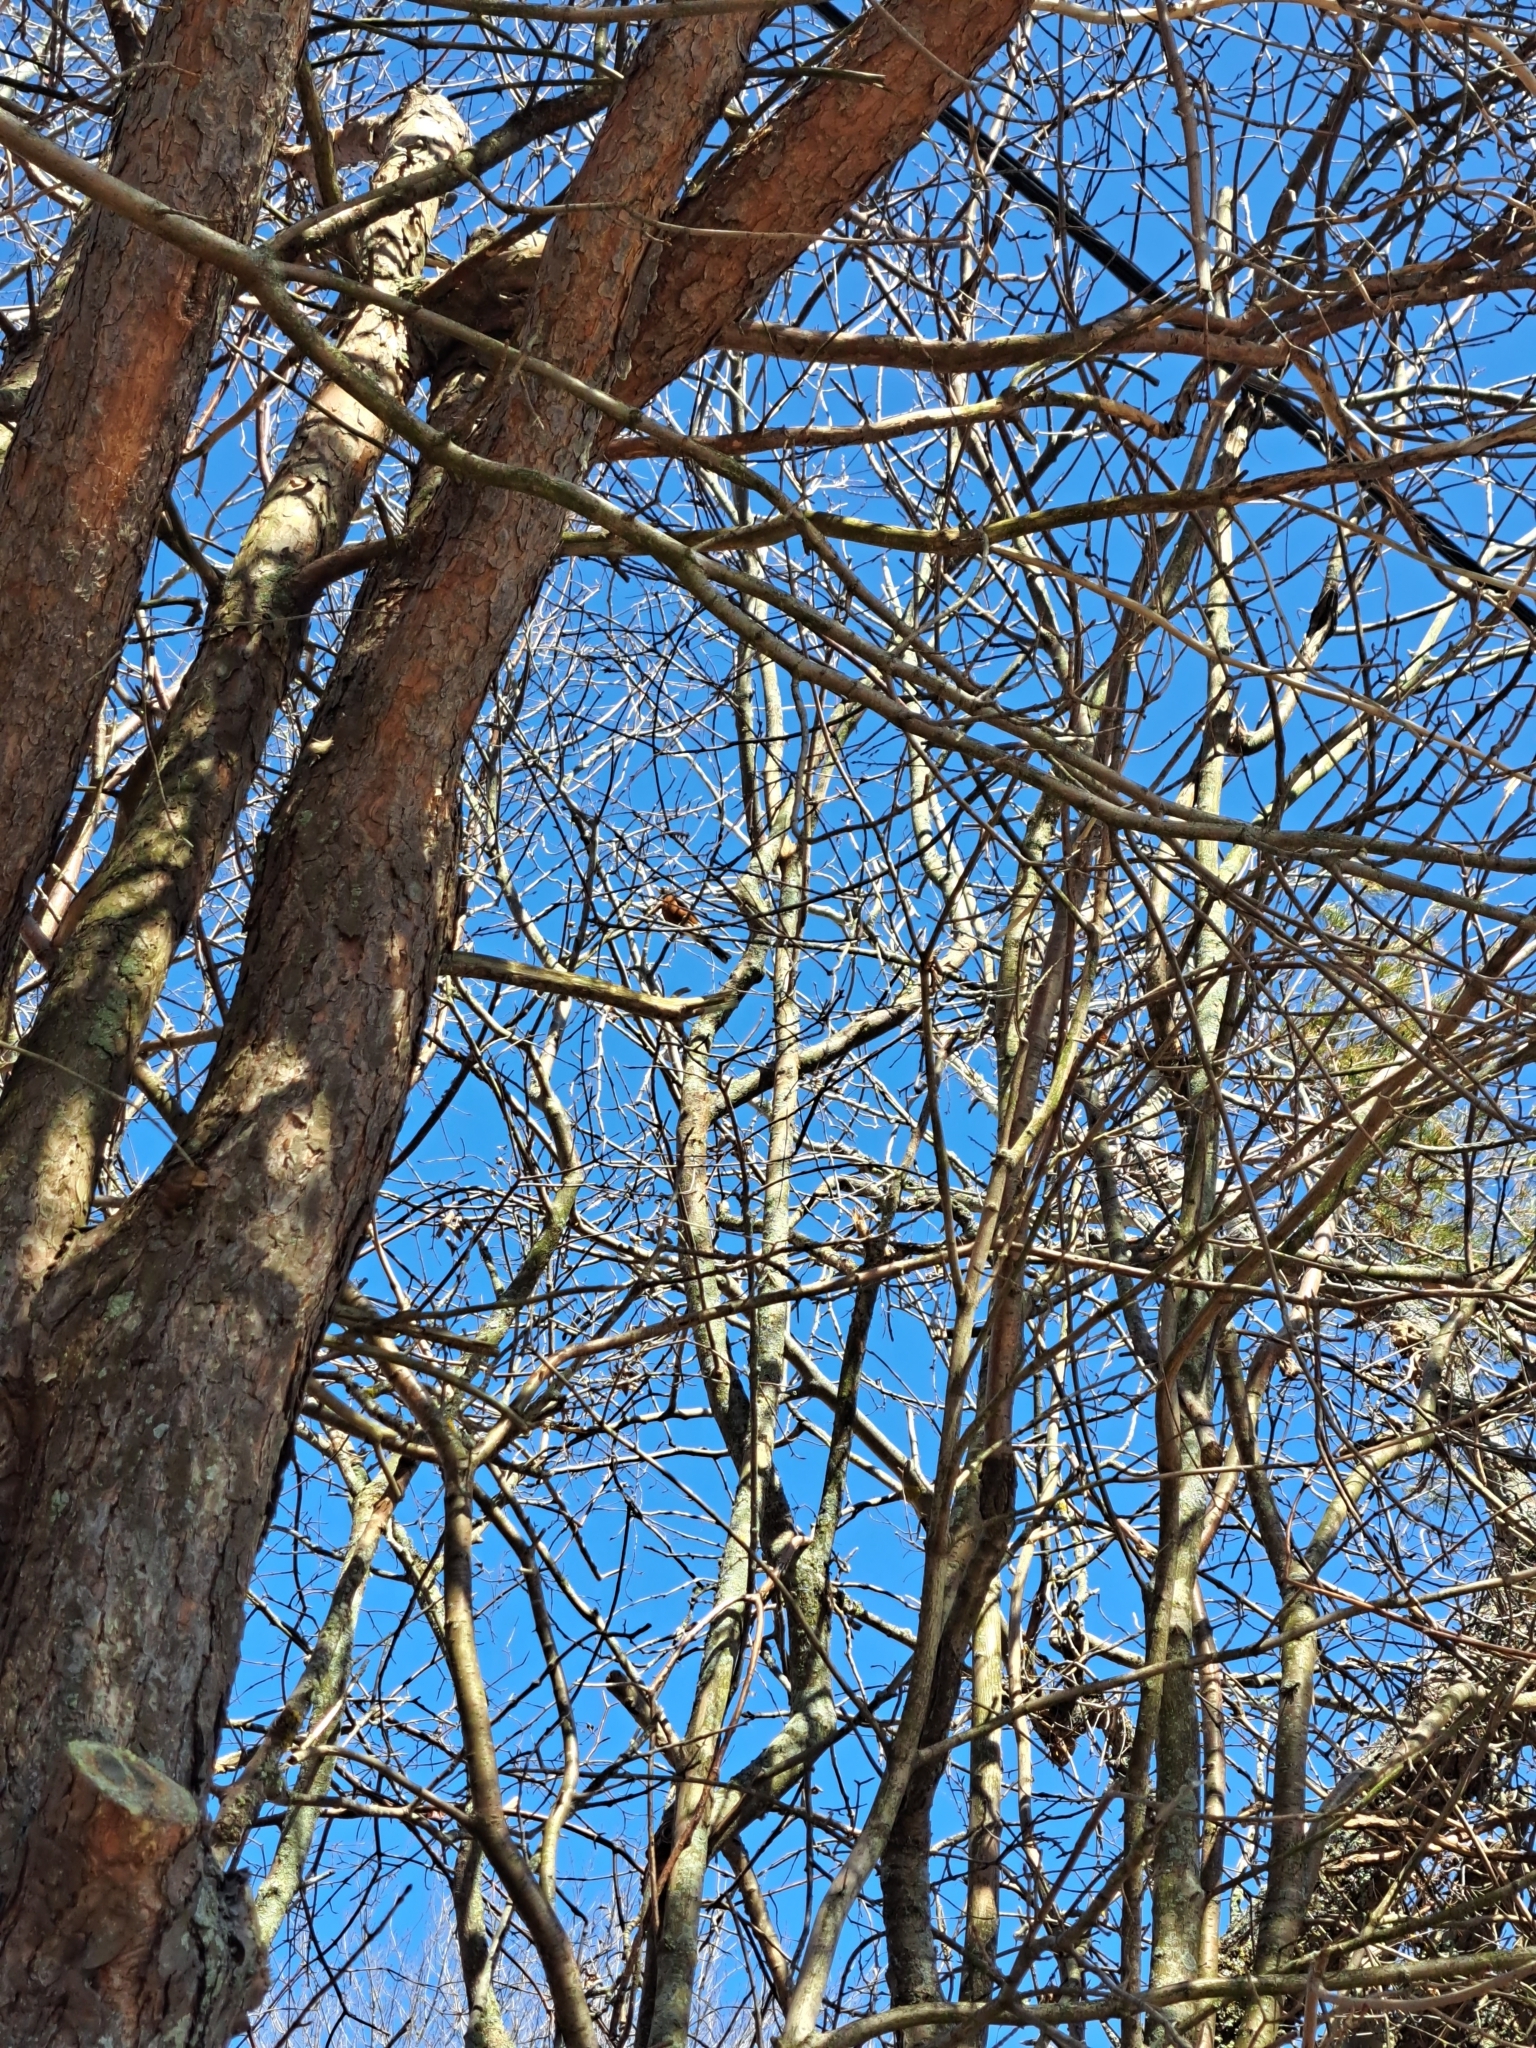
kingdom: Animalia
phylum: Chordata
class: Aves
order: Passeriformes
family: Turdidae
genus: Turdus
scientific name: Turdus migratorius
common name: American robin
